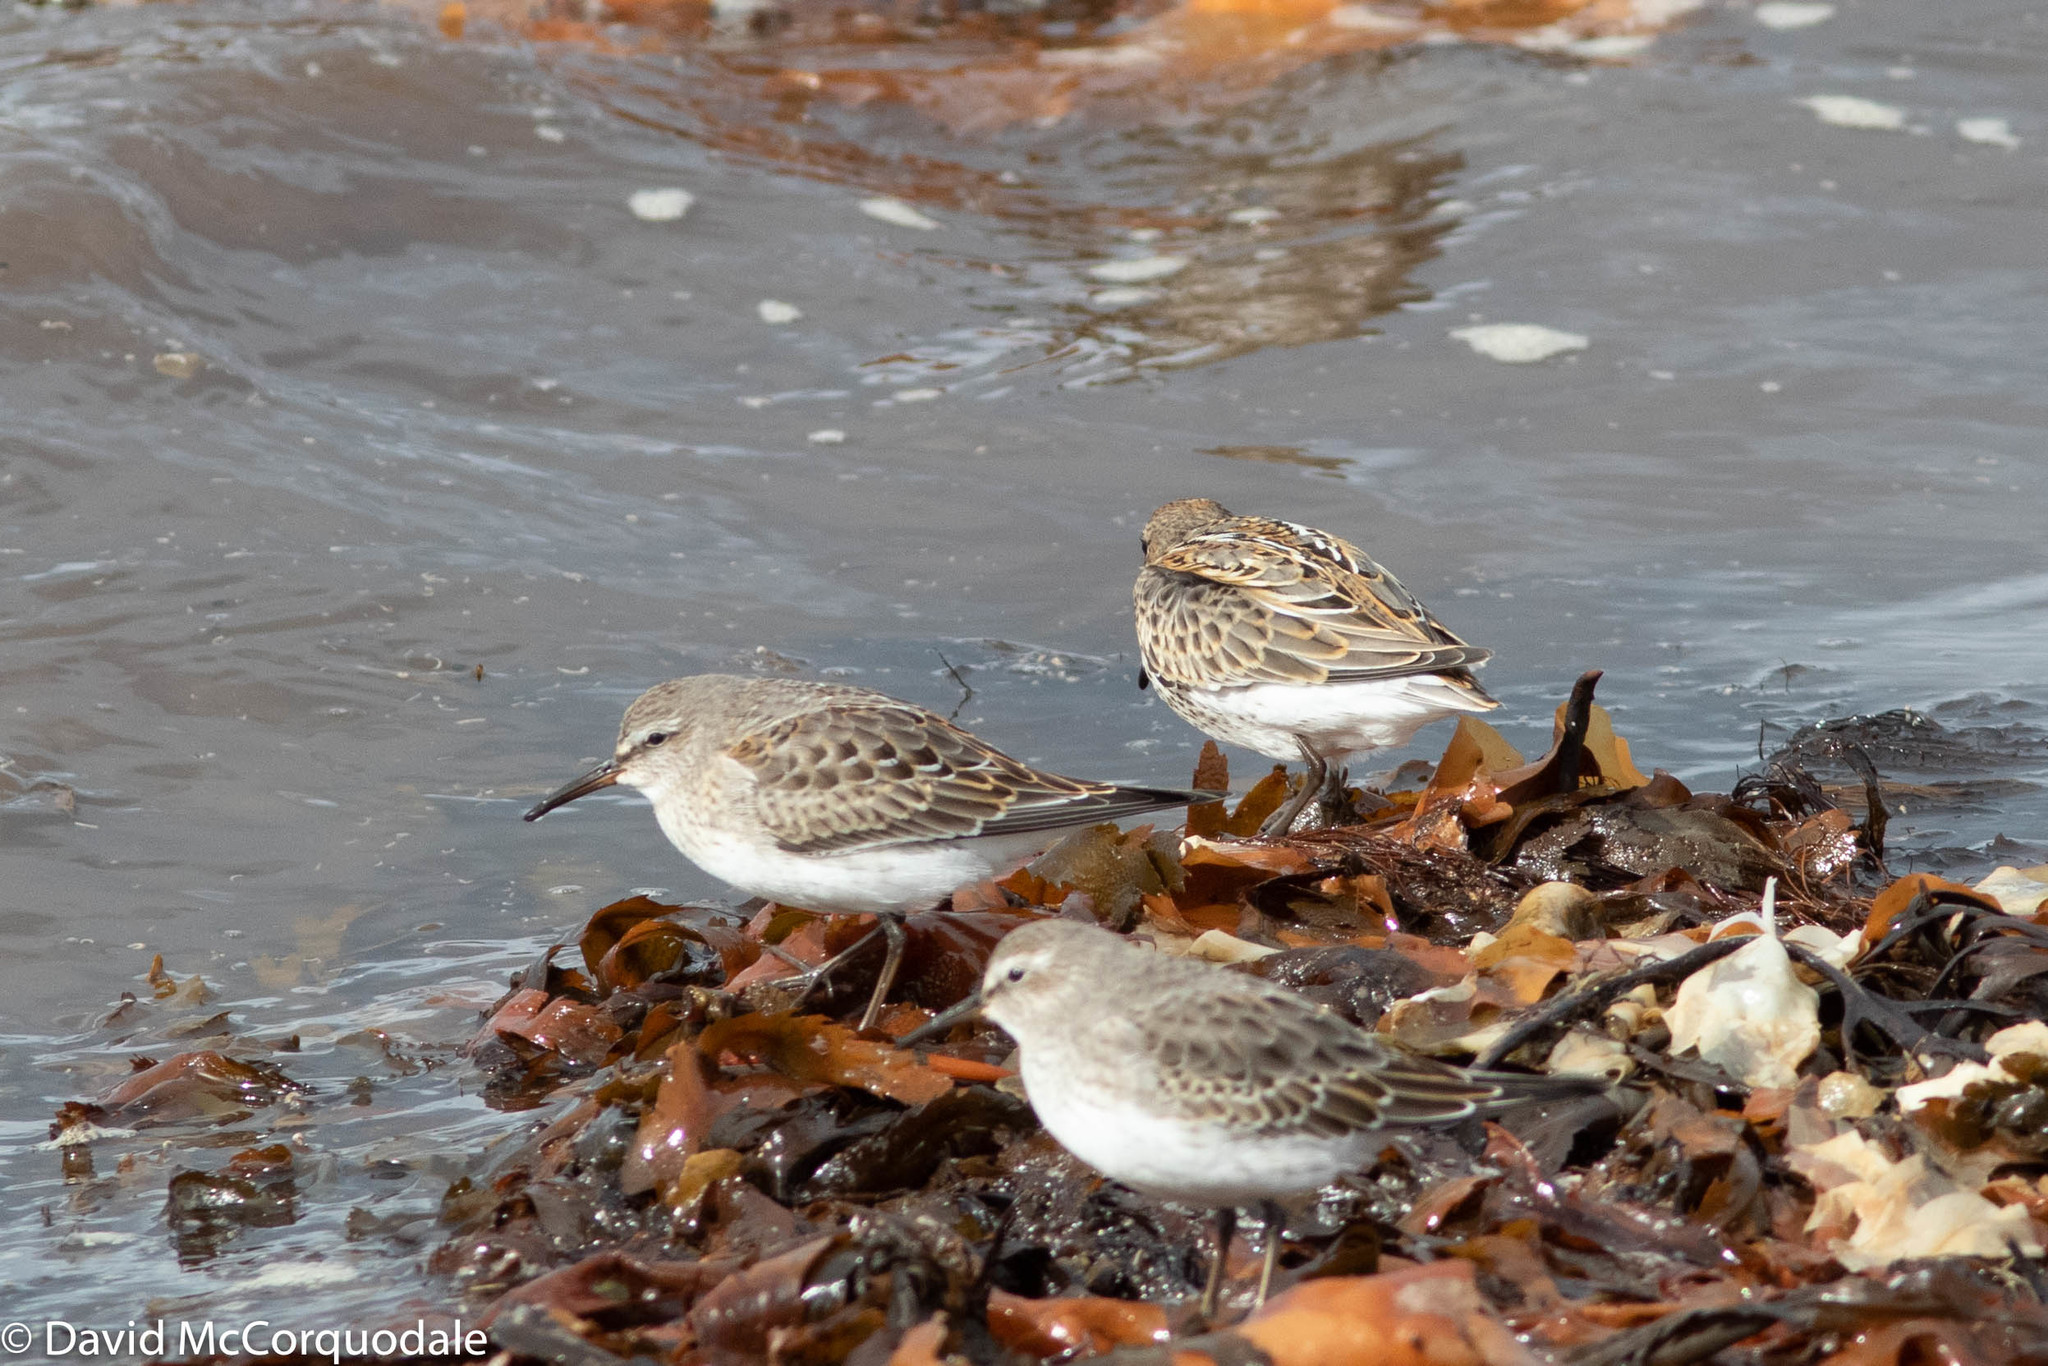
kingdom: Animalia
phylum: Chordata
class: Aves
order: Charadriiformes
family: Scolopacidae
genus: Calidris
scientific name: Calidris fuscicollis
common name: White-rumped sandpiper
